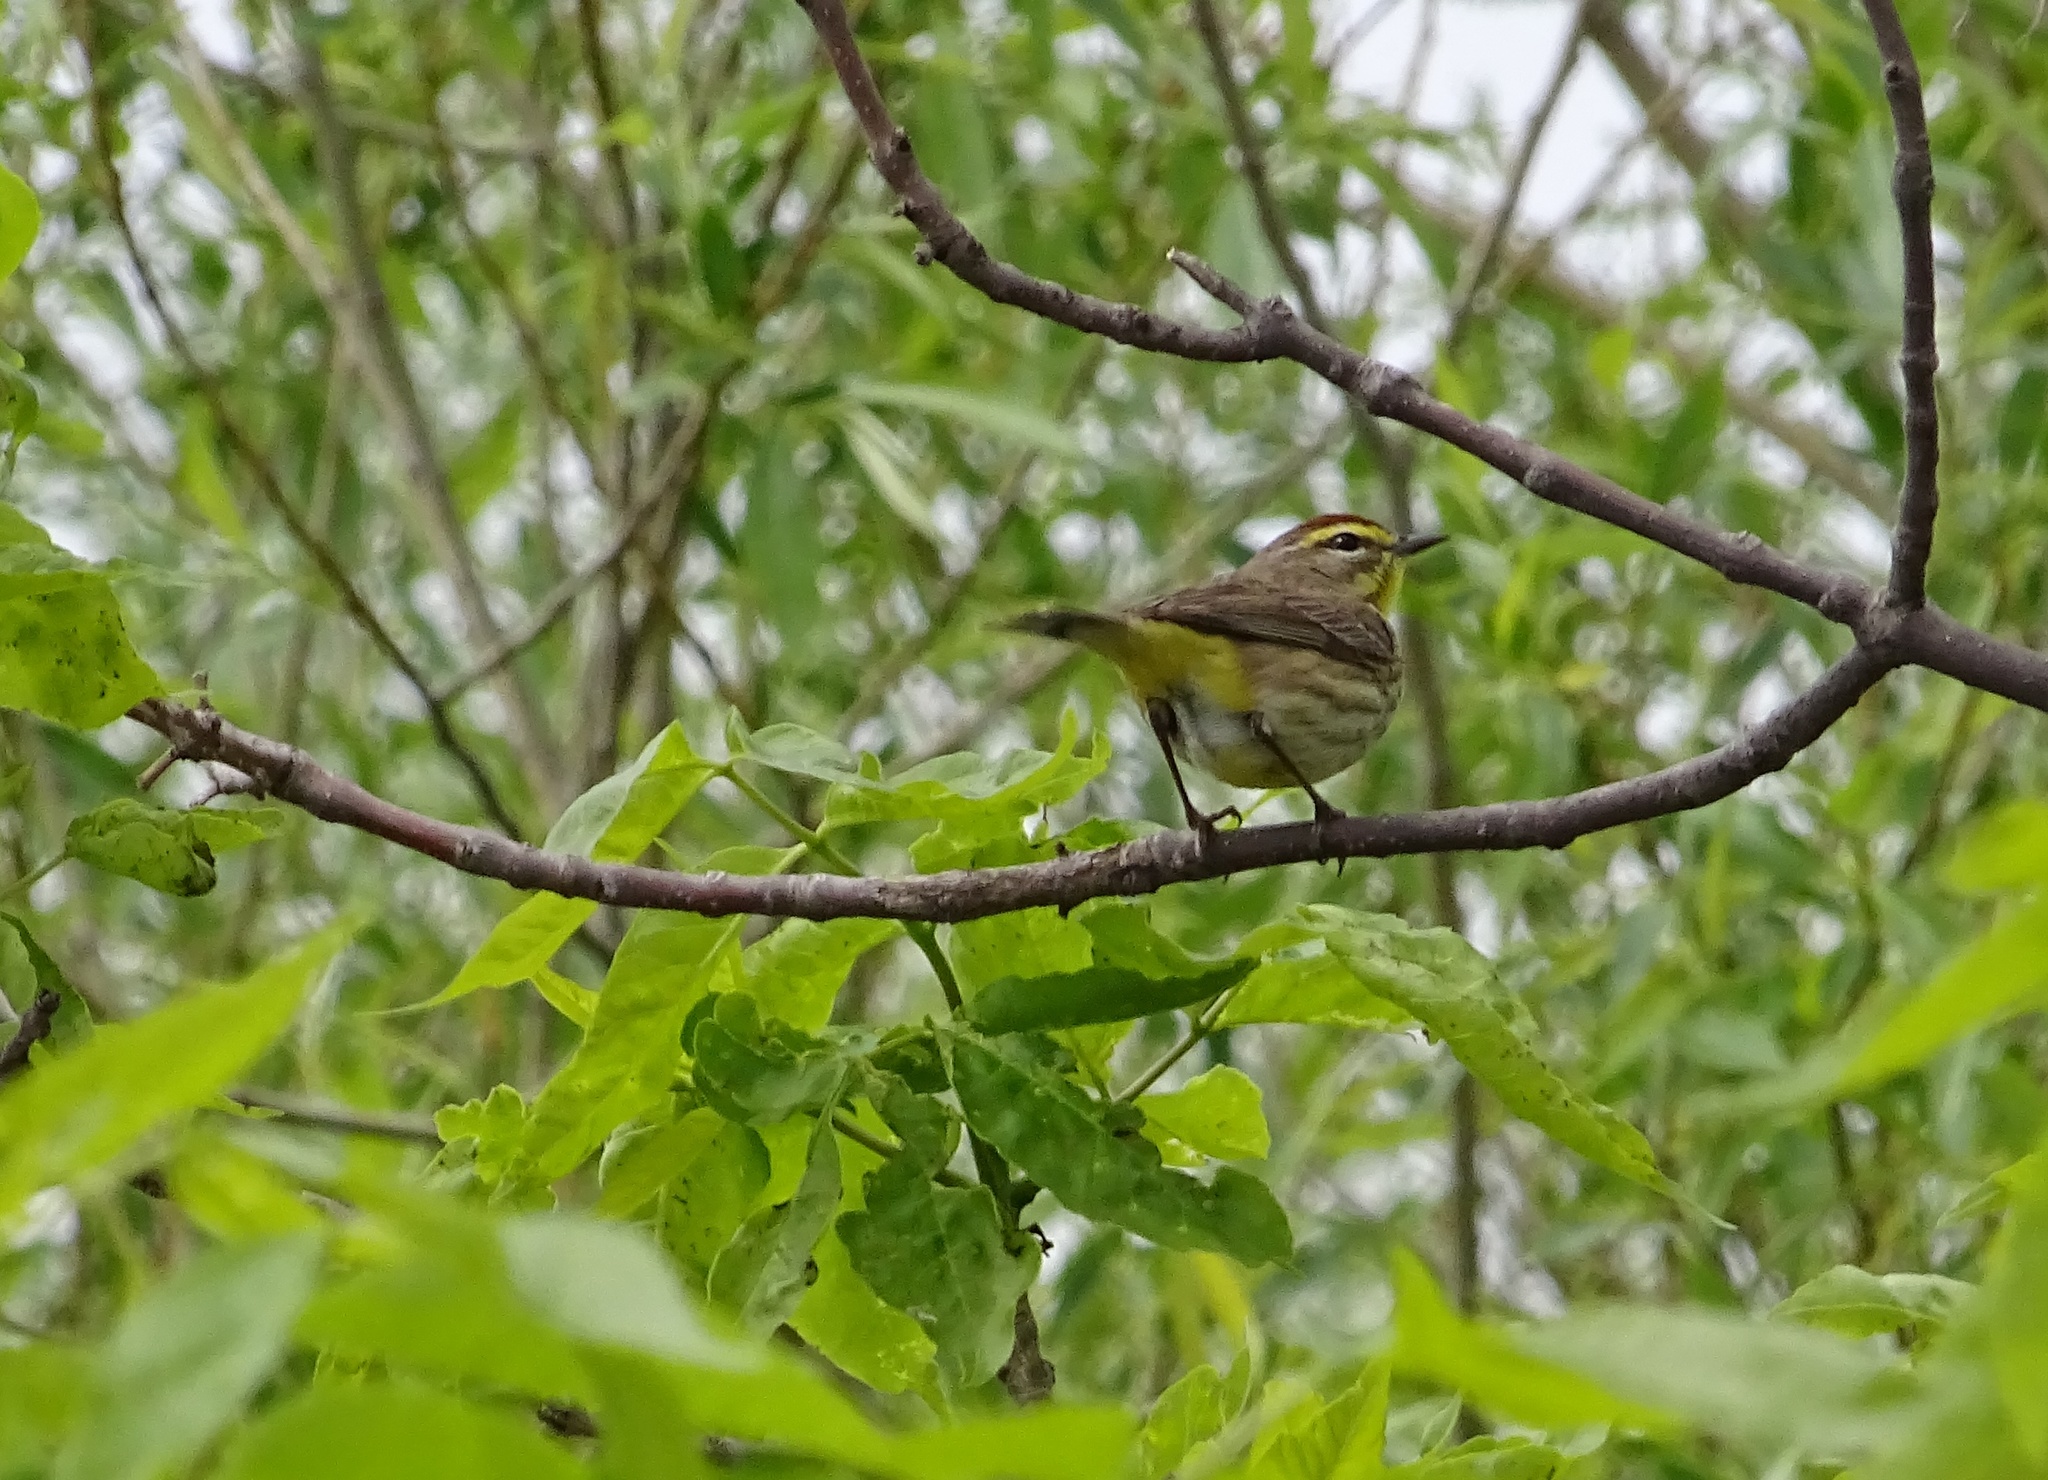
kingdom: Animalia
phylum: Chordata
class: Aves
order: Passeriformes
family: Parulidae
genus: Setophaga
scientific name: Setophaga palmarum
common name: Palm warbler
